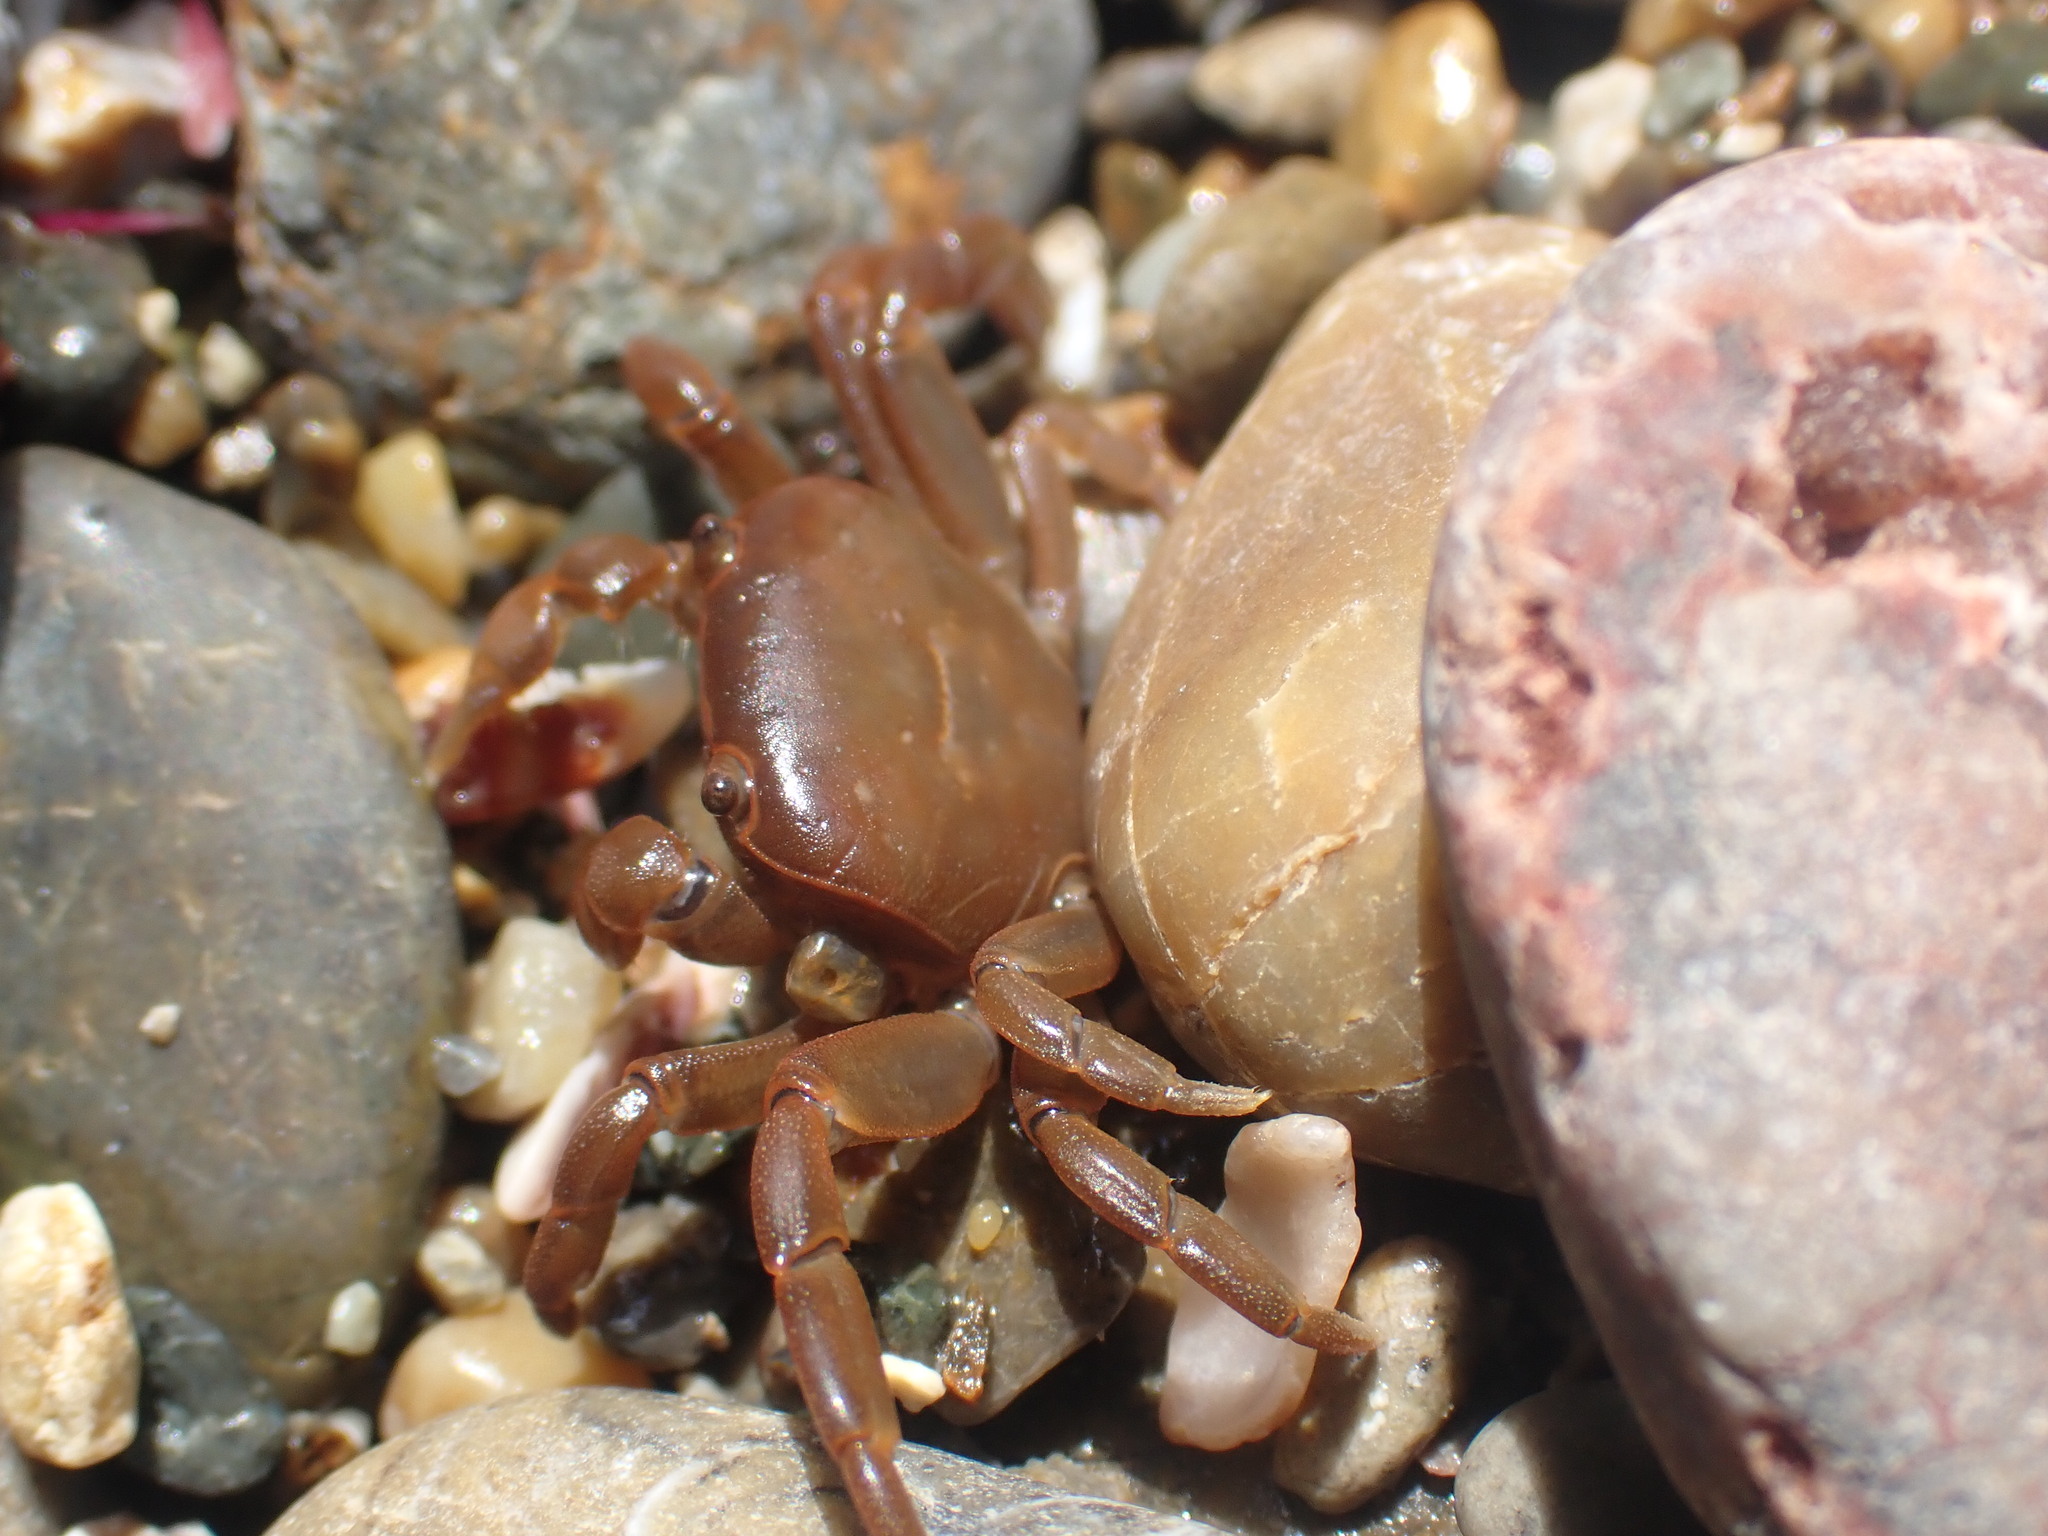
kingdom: Animalia
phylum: Arthropoda
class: Malacostraca
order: Decapoda
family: Varunidae
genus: Cyclograpsus
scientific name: Cyclograpsus insularum
